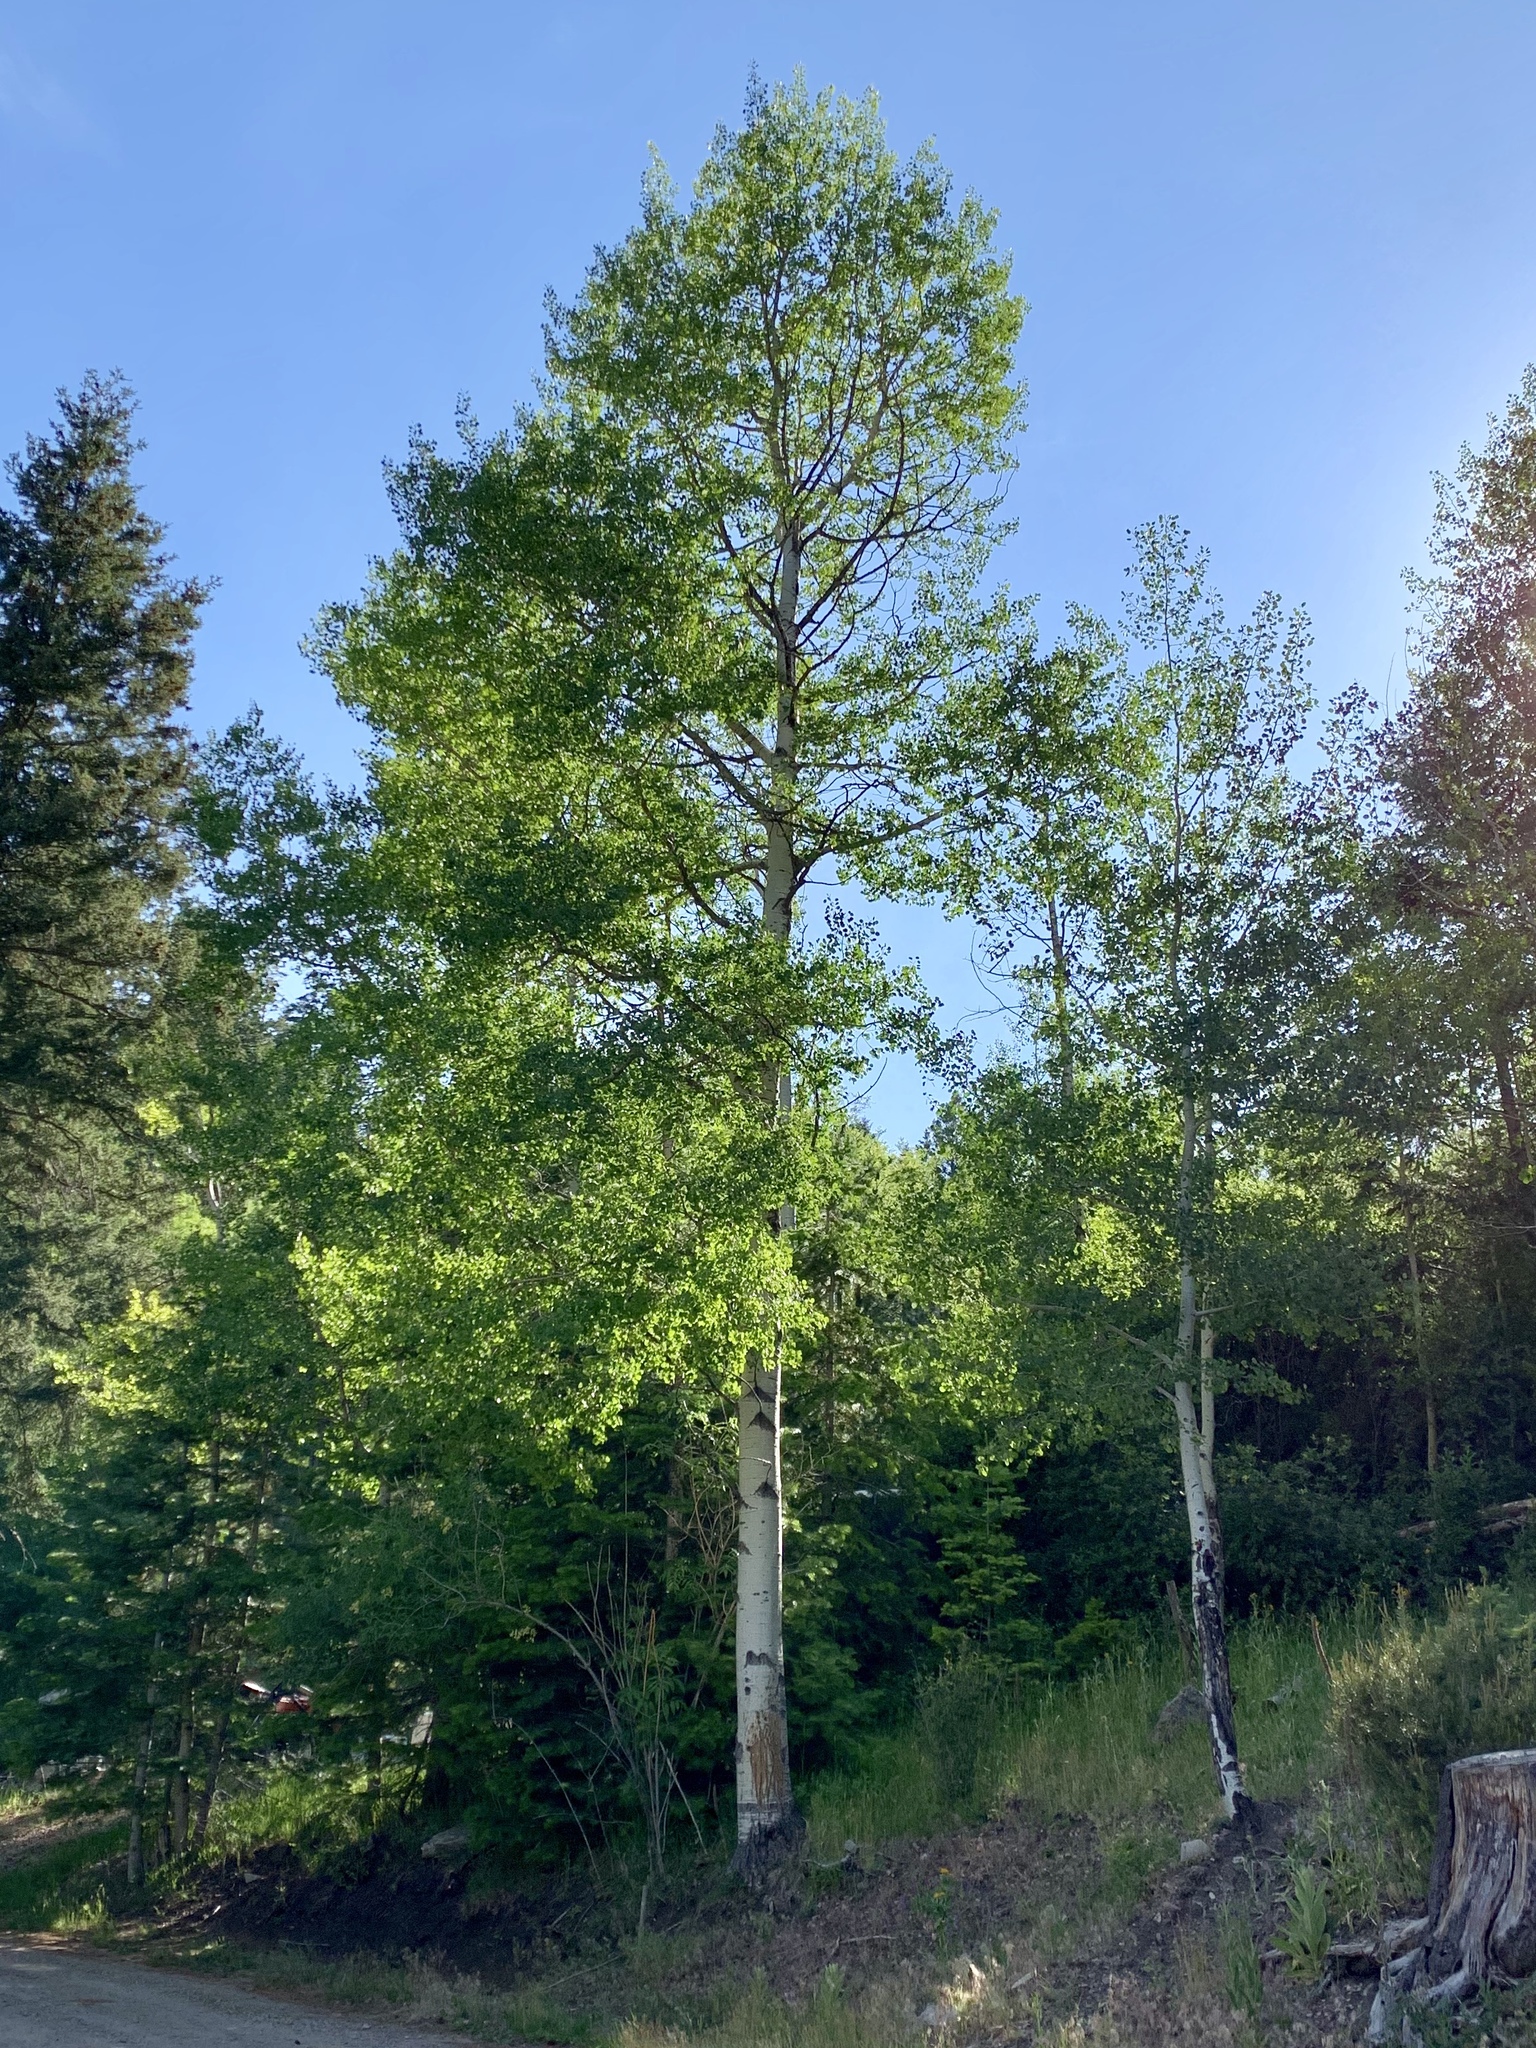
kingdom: Plantae
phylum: Tracheophyta
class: Magnoliopsida
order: Malpighiales
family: Salicaceae
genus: Populus
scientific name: Populus tremuloides
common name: Quaking aspen
